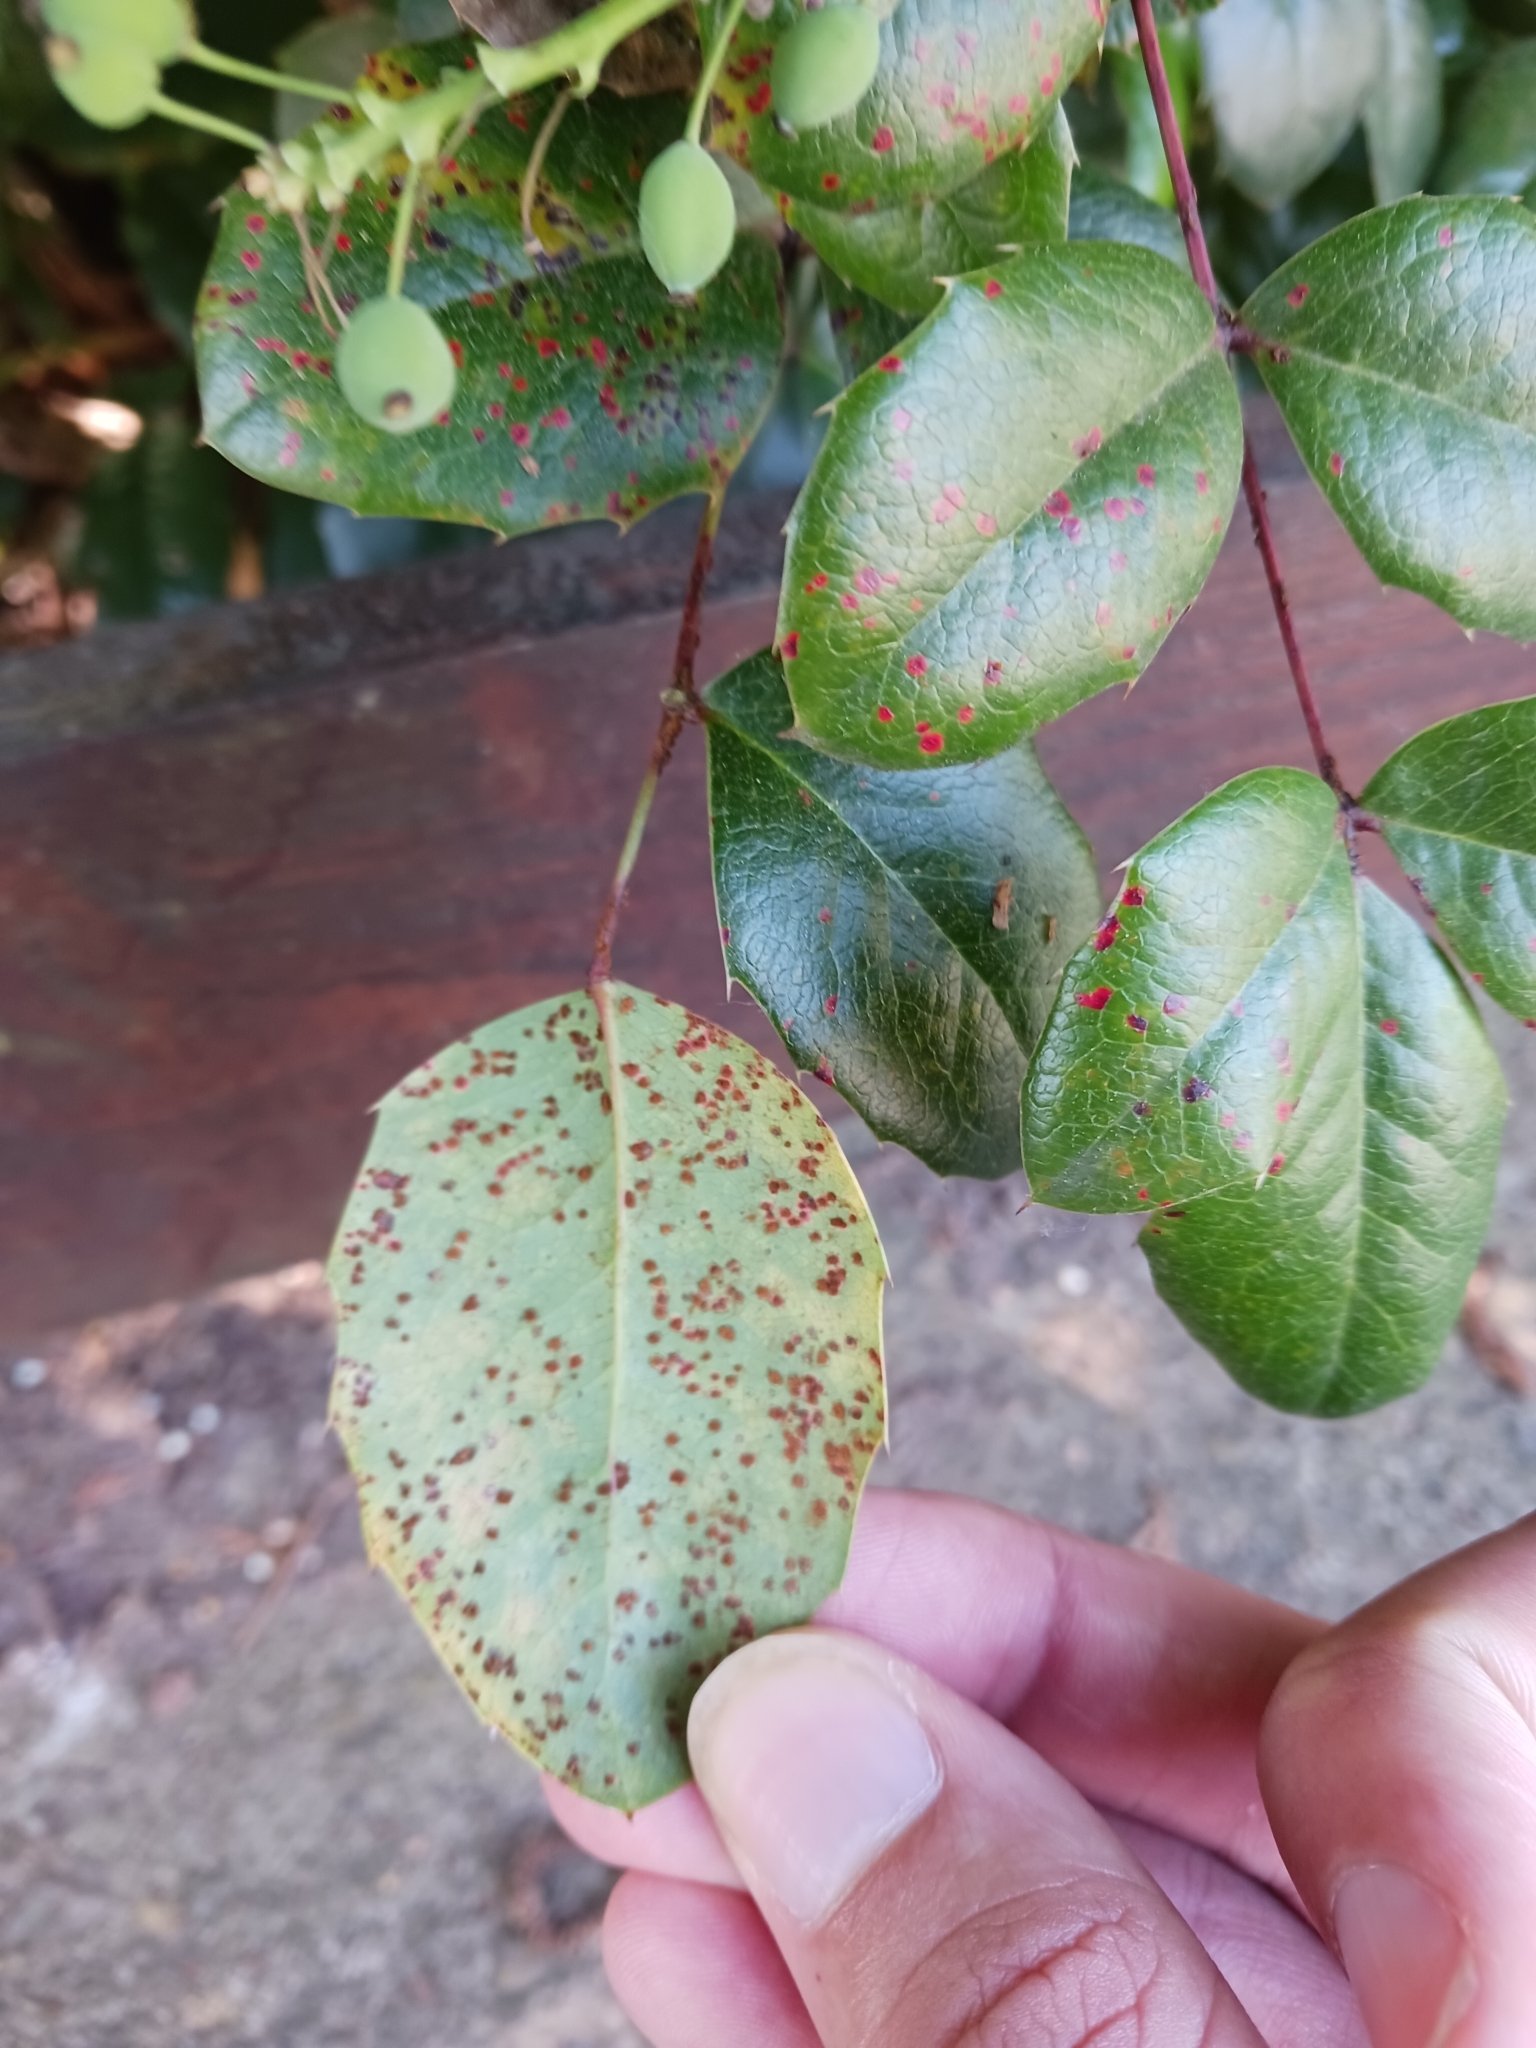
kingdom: Fungi
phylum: Basidiomycota
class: Pucciniomycetes
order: Pucciniales
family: Pucciniaceae
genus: Cumminsiella
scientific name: Cumminsiella mirabilissima
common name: Mahonia rust
